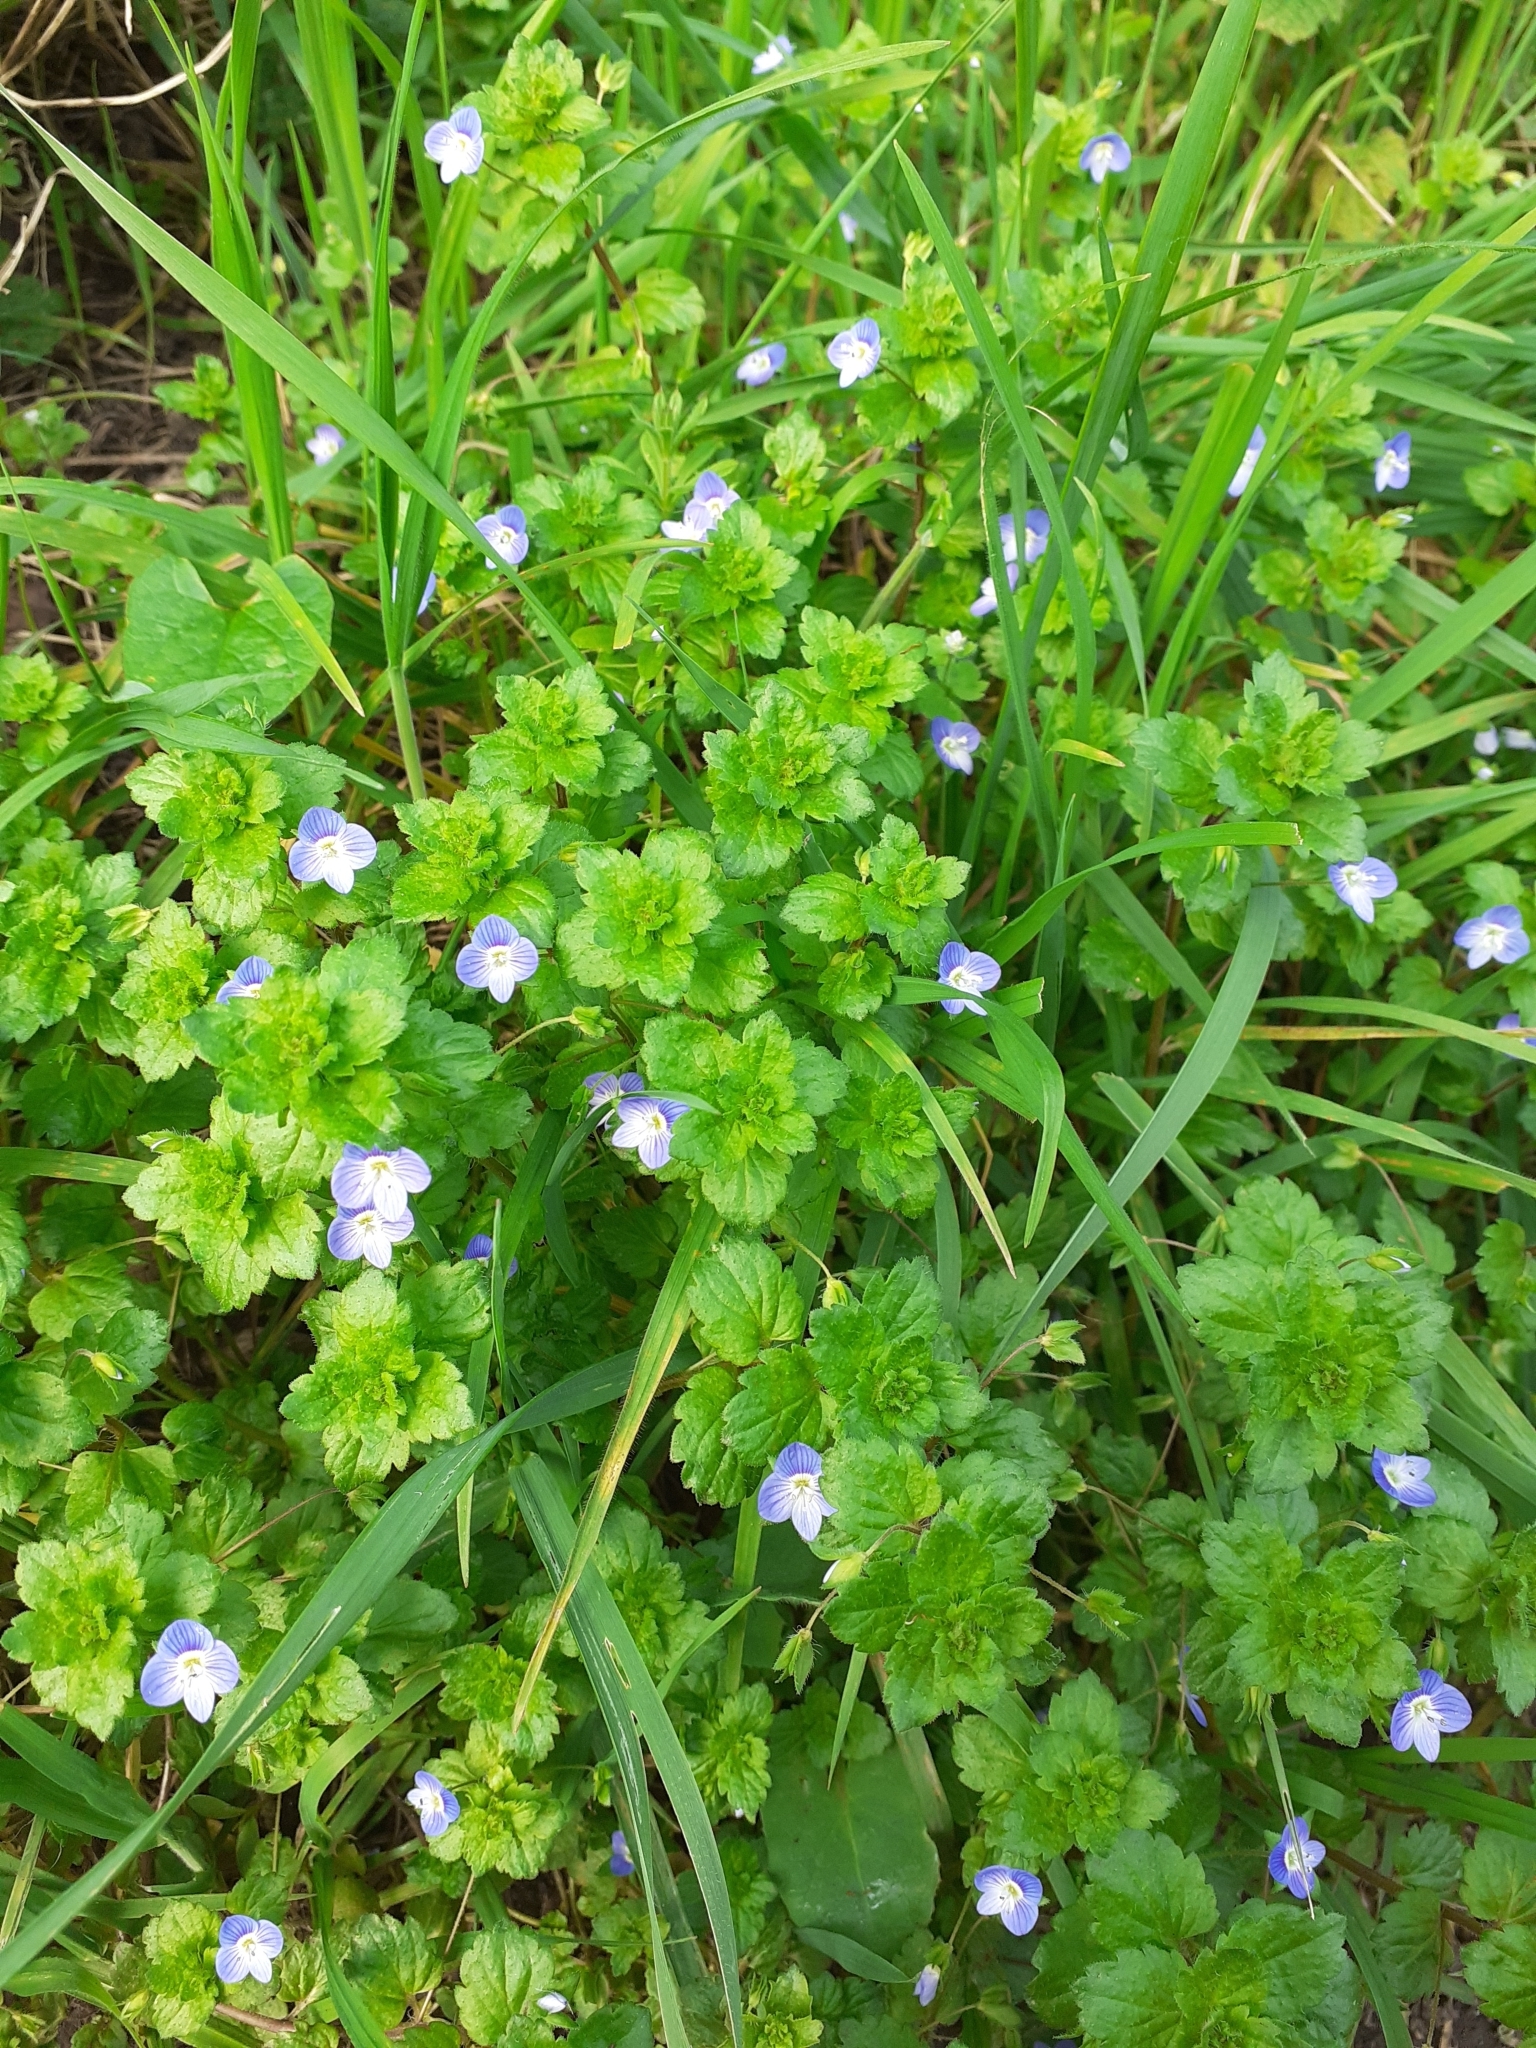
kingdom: Plantae
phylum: Tracheophyta
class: Magnoliopsida
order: Lamiales
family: Plantaginaceae
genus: Veronica
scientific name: Veronica persica
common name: Common field-speedwell
